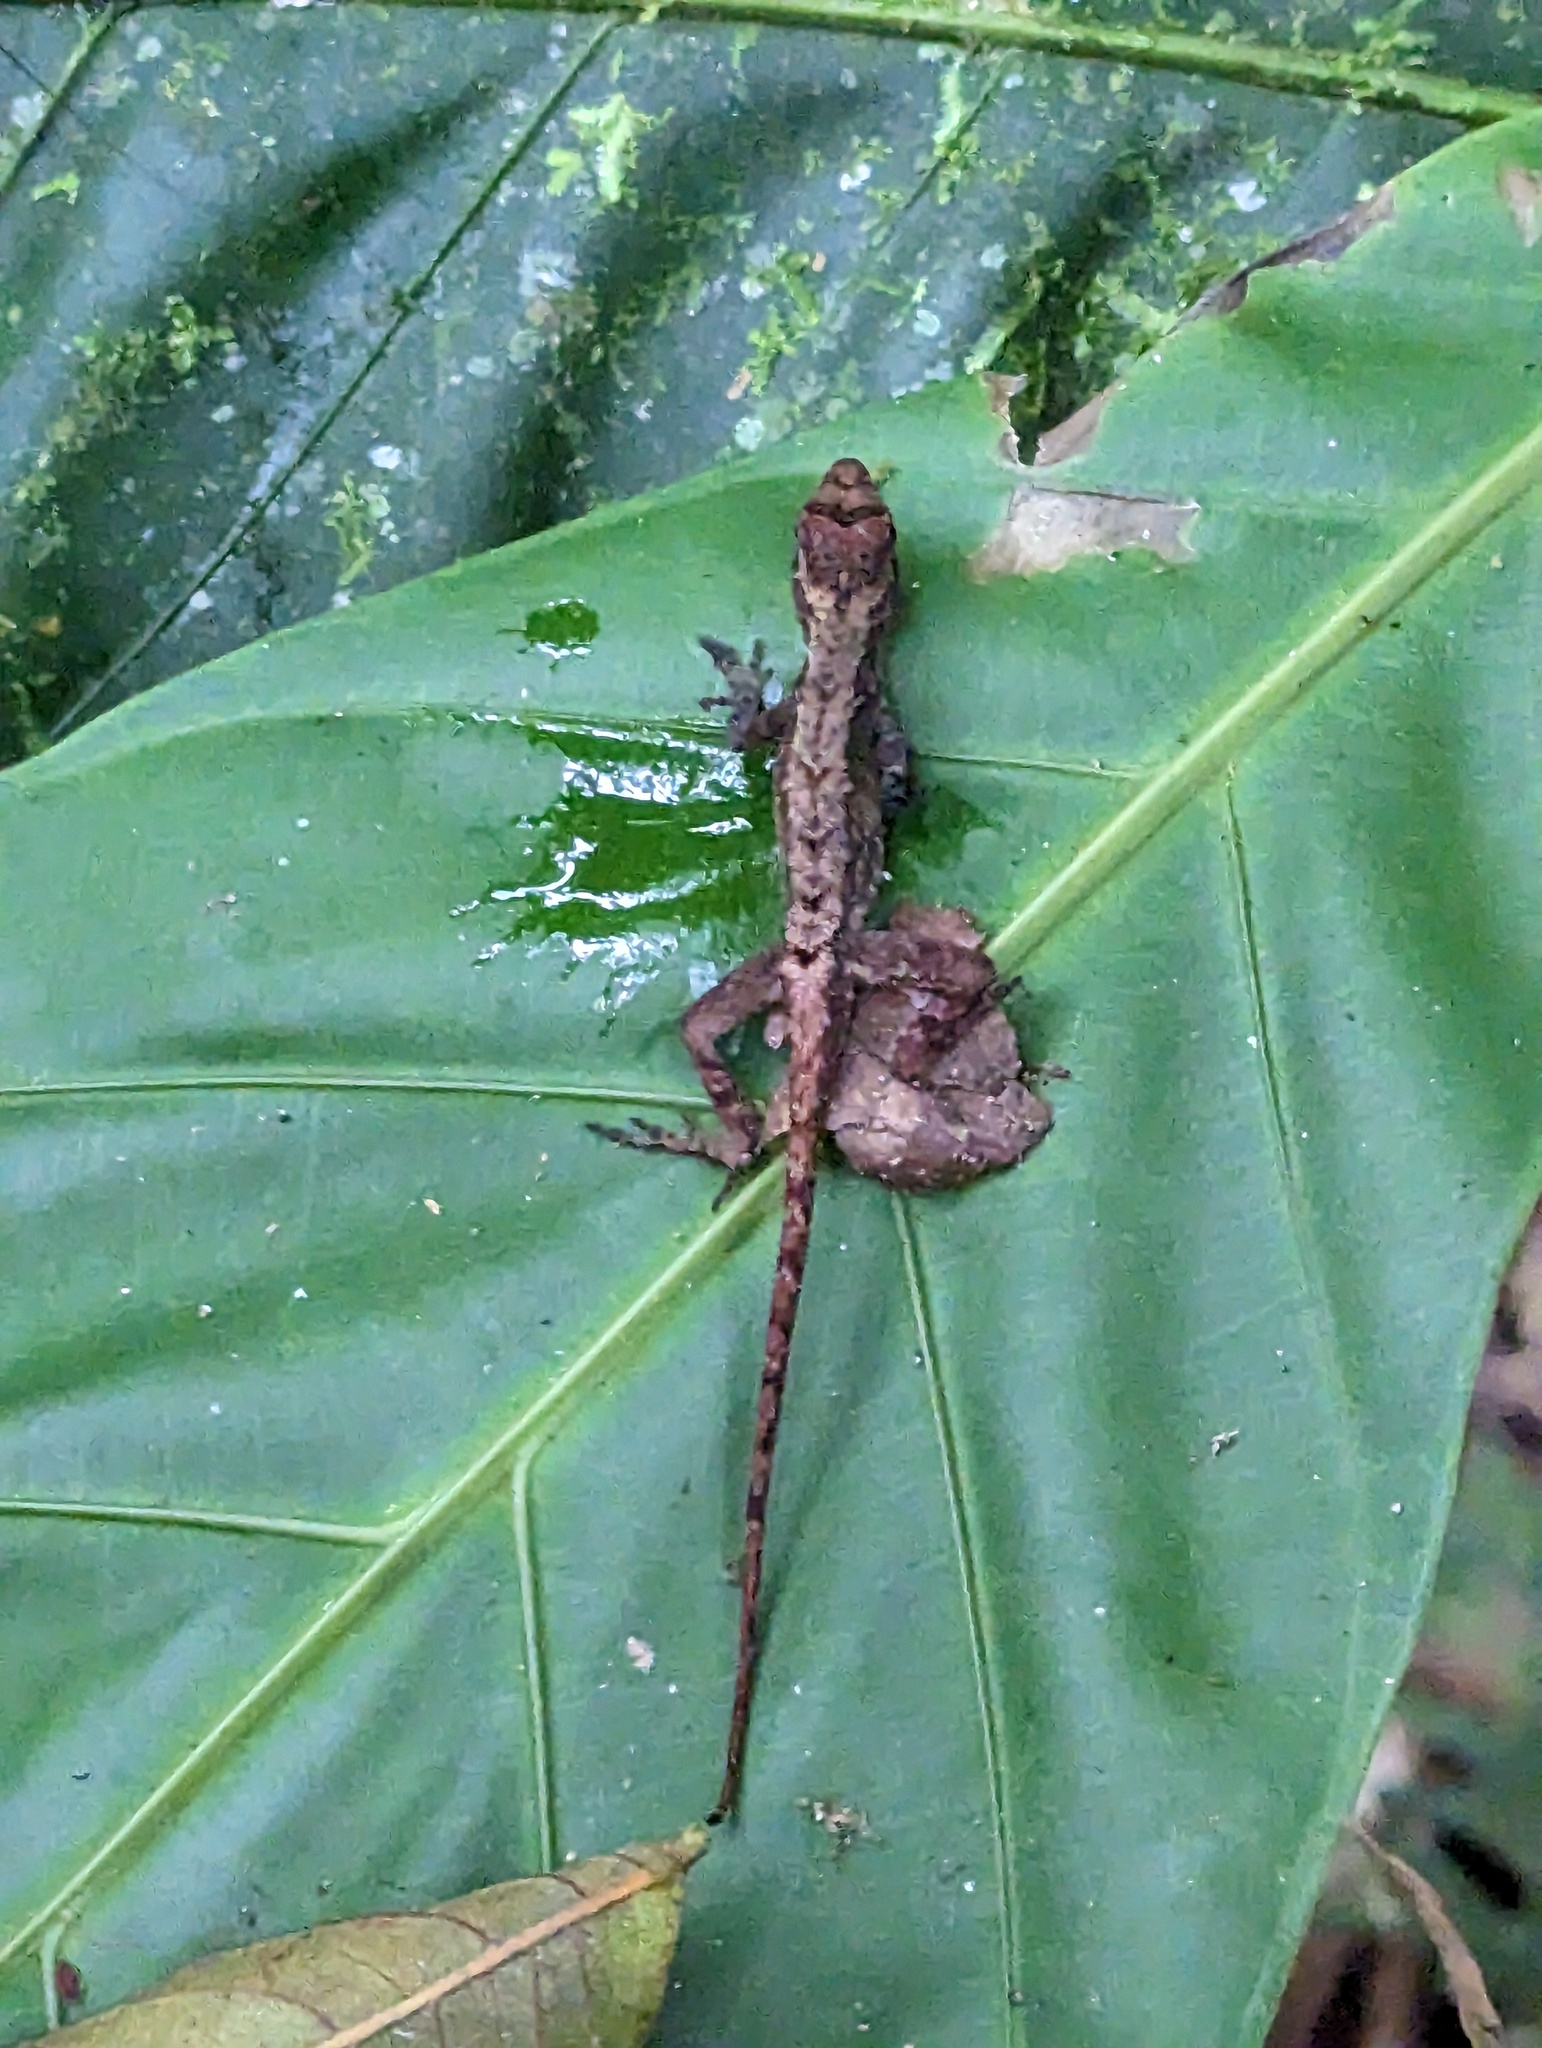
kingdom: Animalia
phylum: Chordata
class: Squamata
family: Dactyloidae
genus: Anolis
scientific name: Anolis humilis
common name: Humble anole
